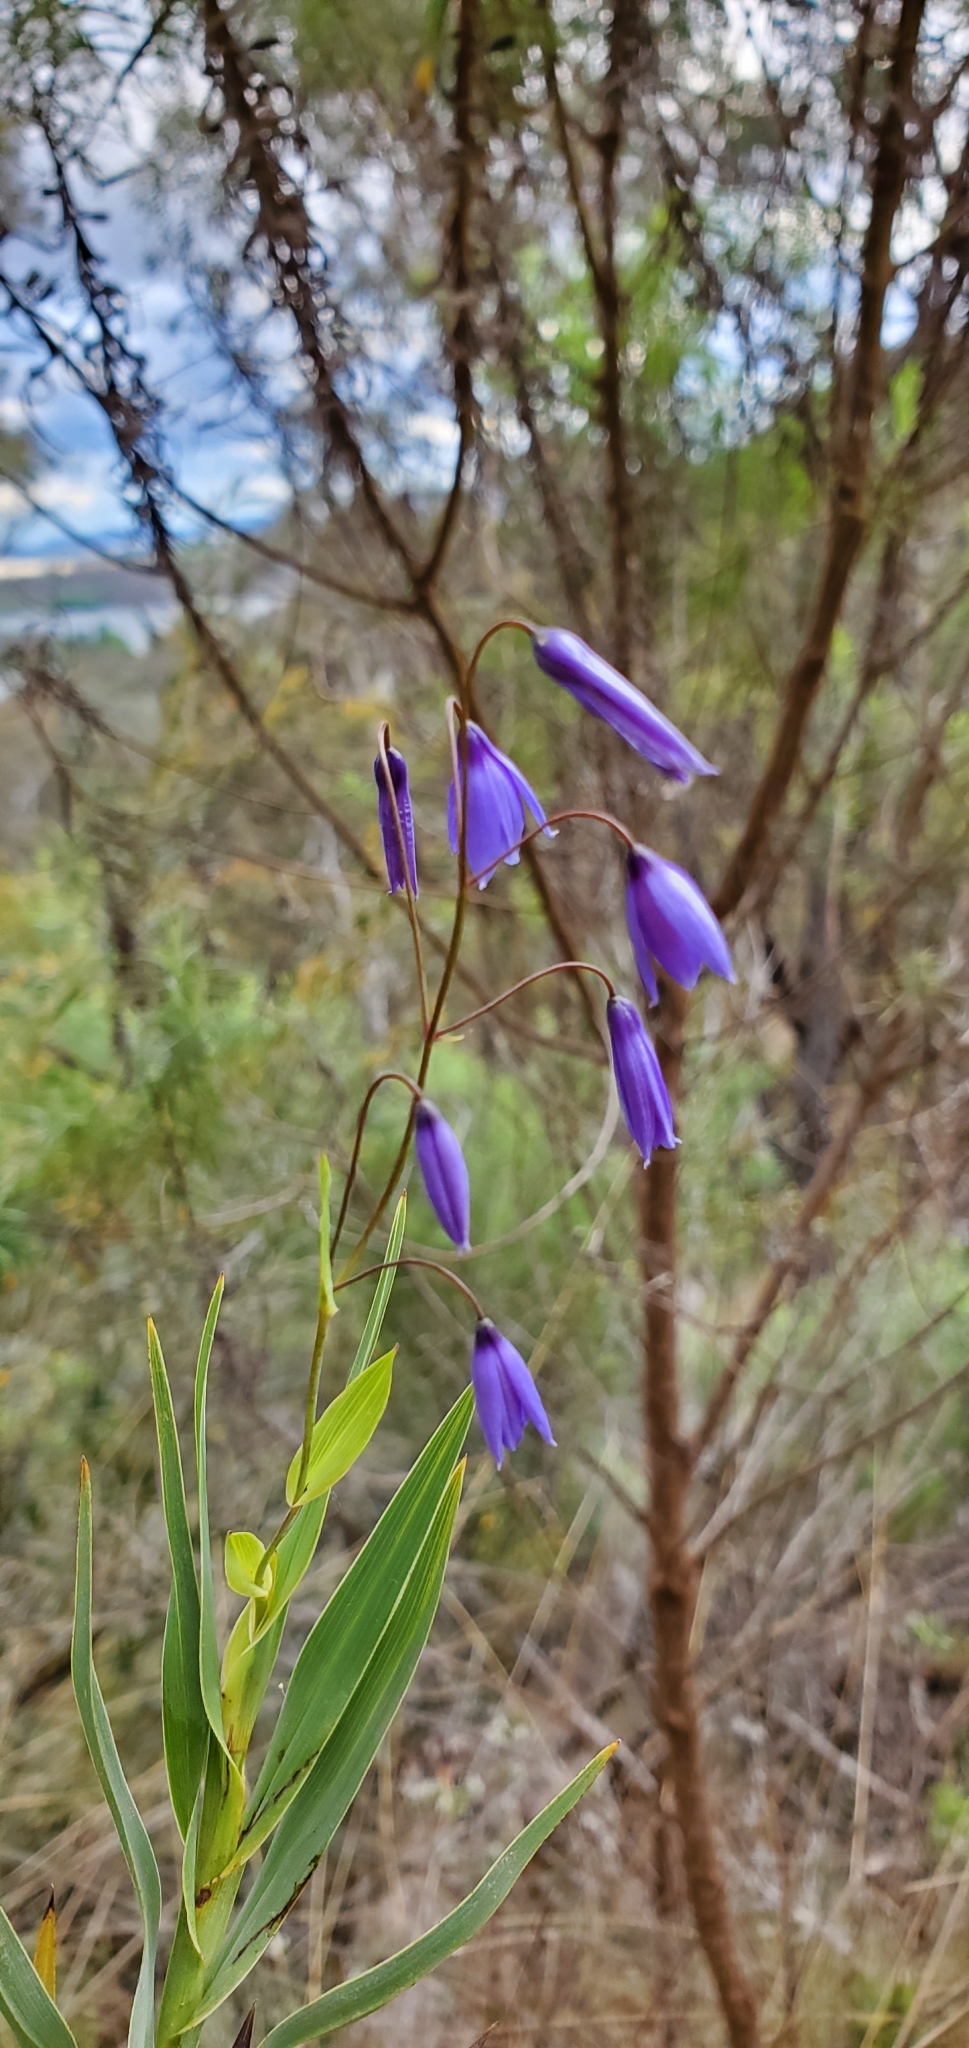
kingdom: Plantae
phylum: Tracheophyta
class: Liliopsida
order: Asparagales
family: Asphodelaceae
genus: Stypandra
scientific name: Stypandra glauca
